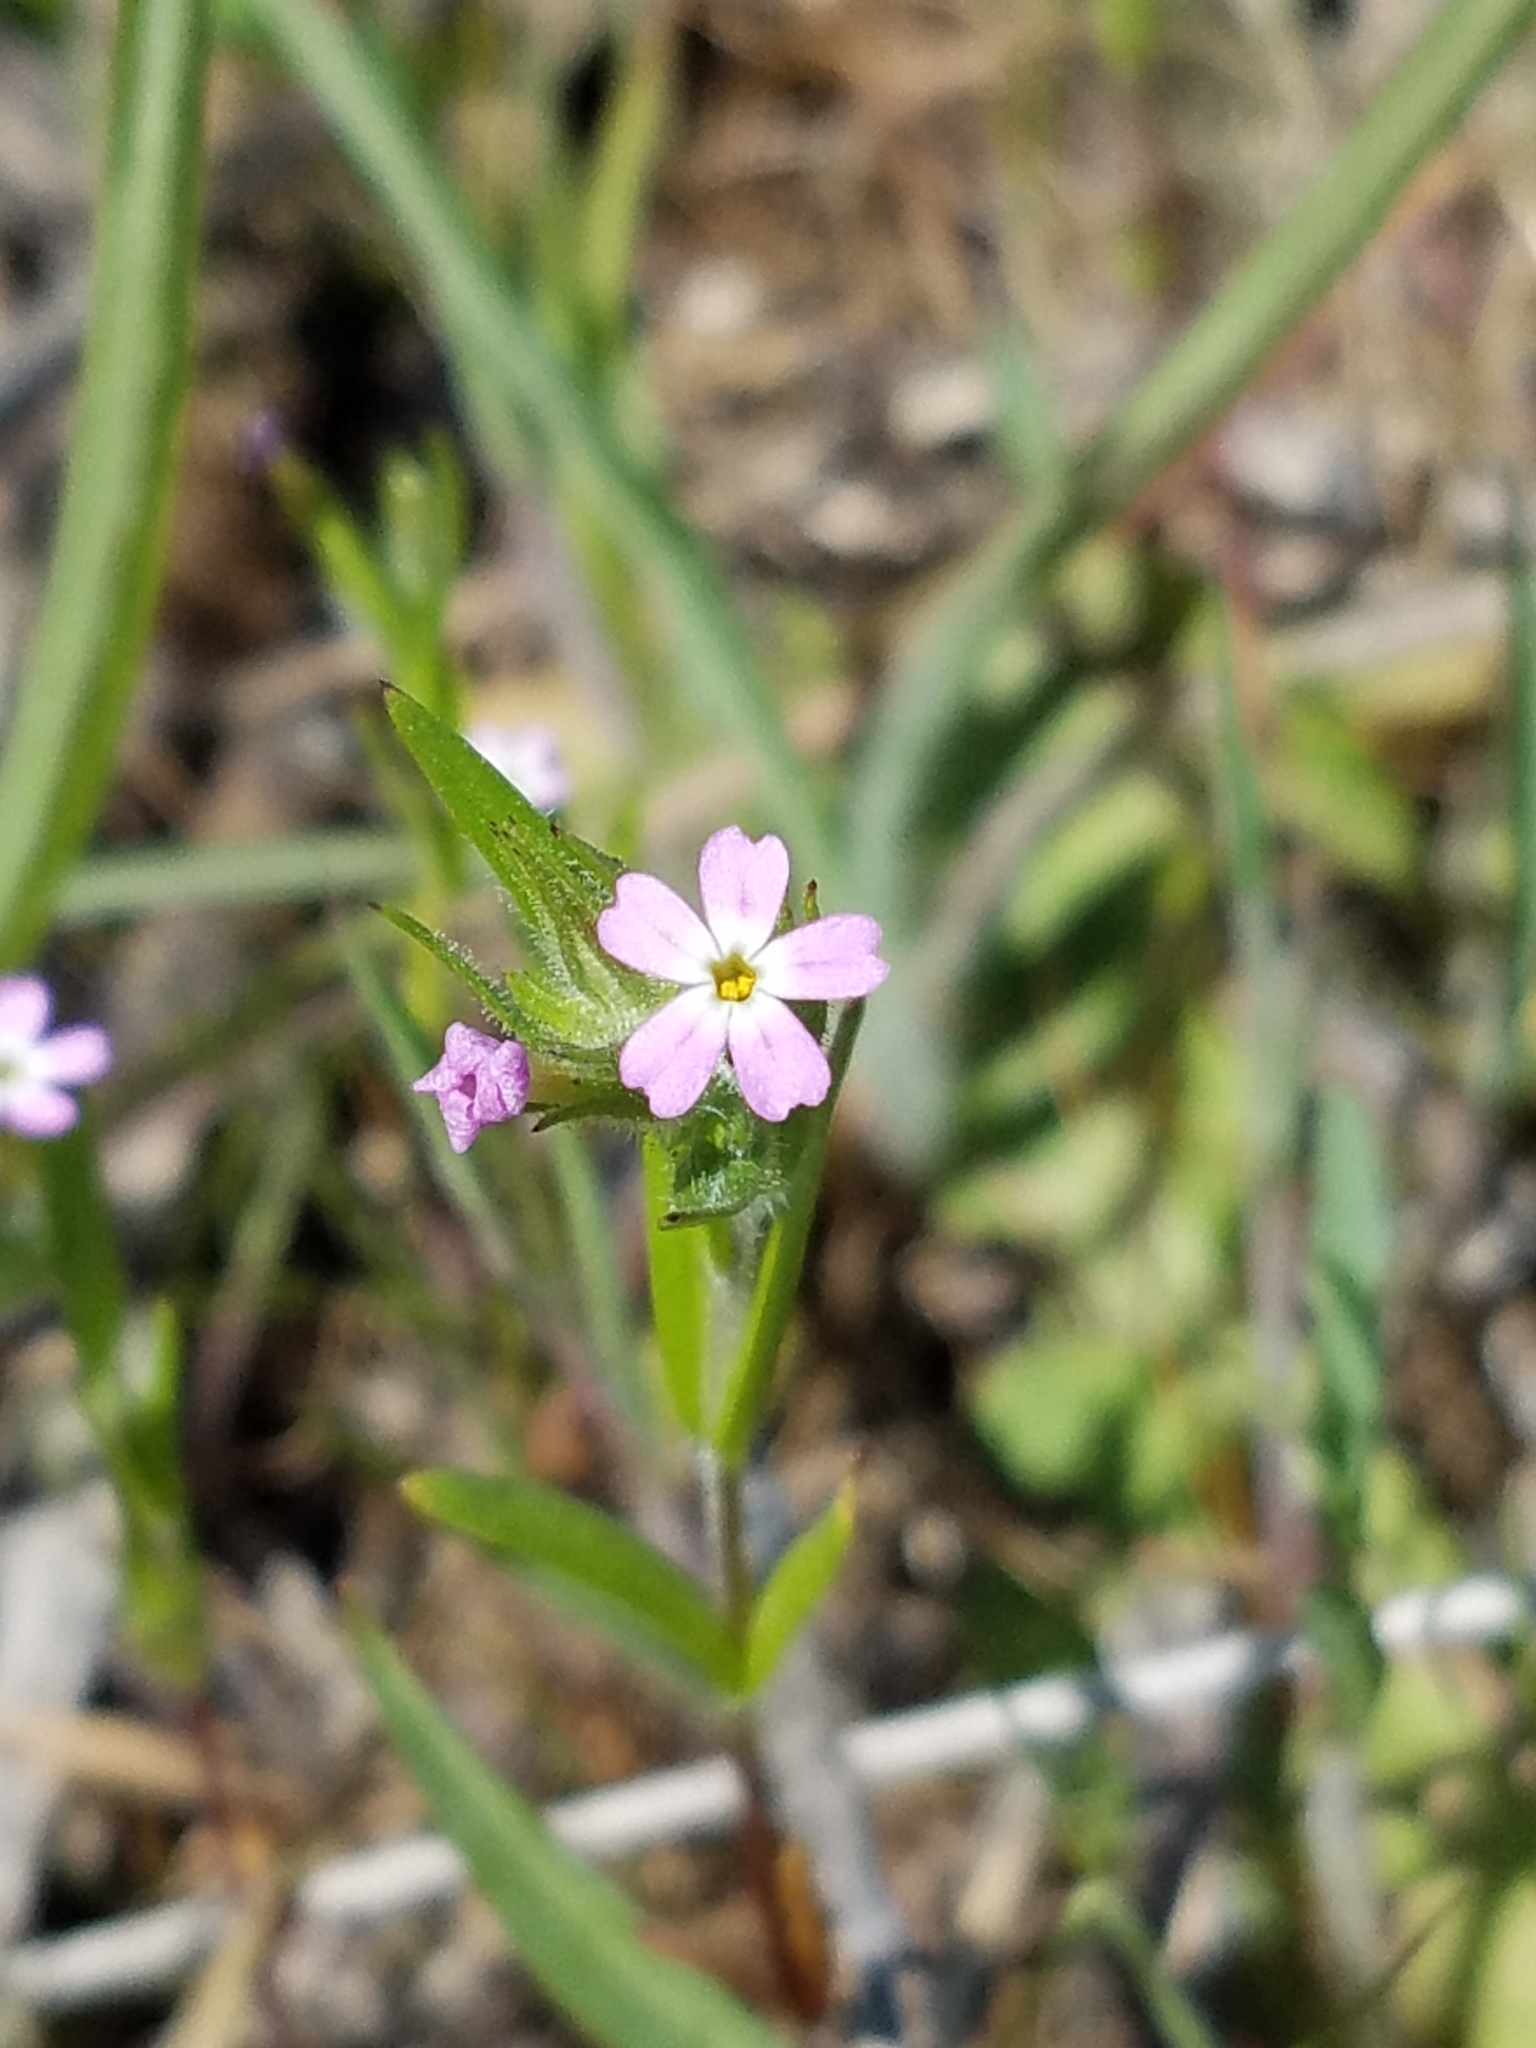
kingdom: Plantae
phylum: Tracheophyta
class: Magnoliopsida
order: Ericales
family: Polemoniaceae
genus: Phlox
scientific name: Phlox gracilis
